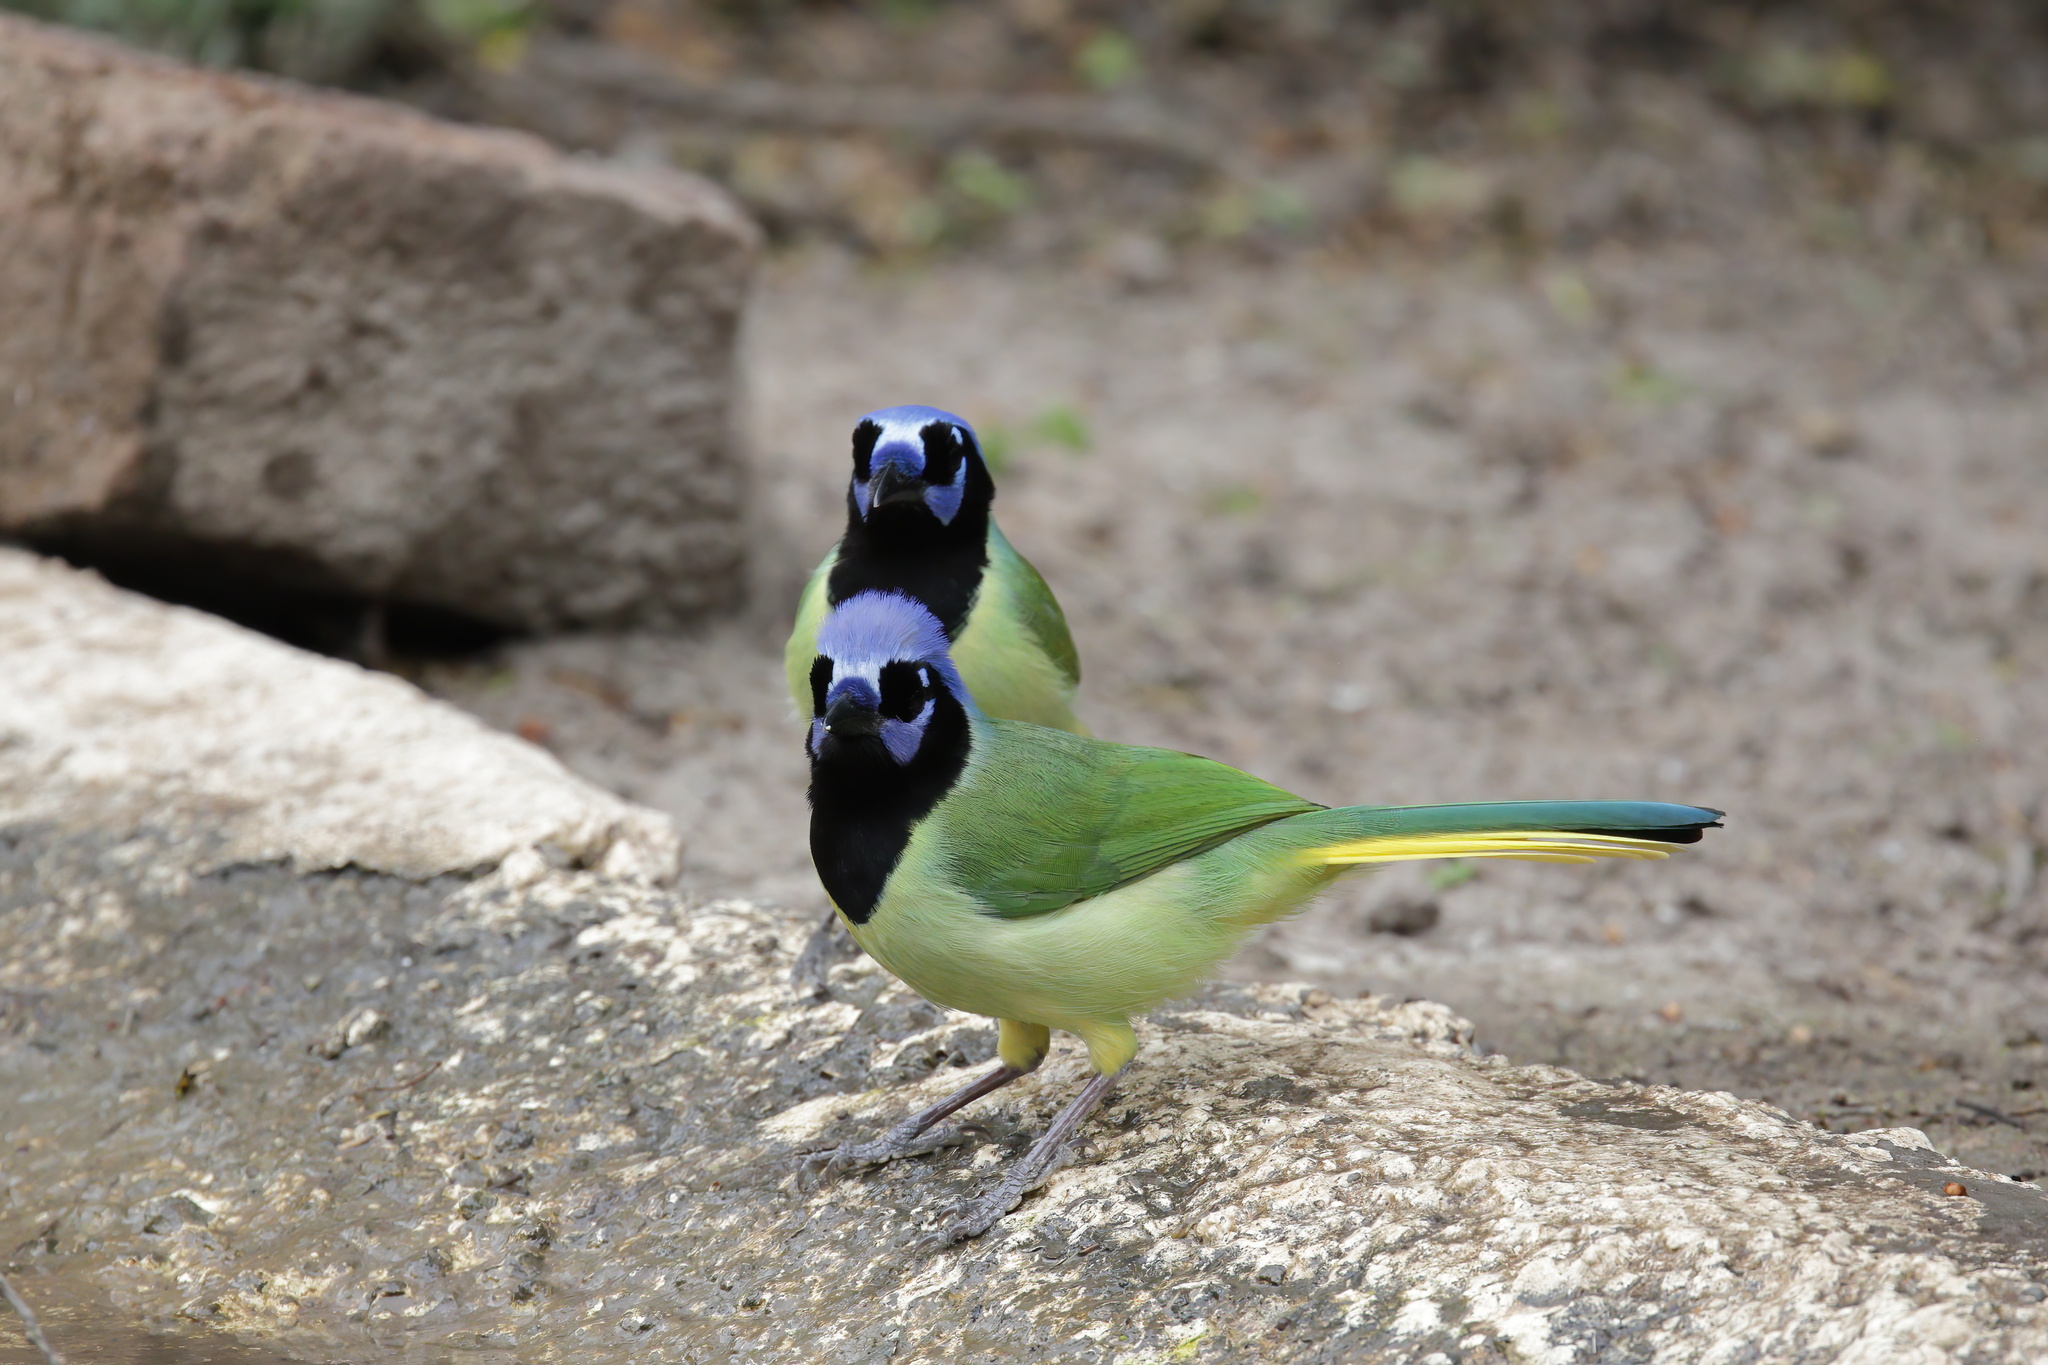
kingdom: Animalia
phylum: Chordata
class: Aves
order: Passeriformes
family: Corvidae
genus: Cyanocorax
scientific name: Cyanocorax yncas
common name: Green jay
